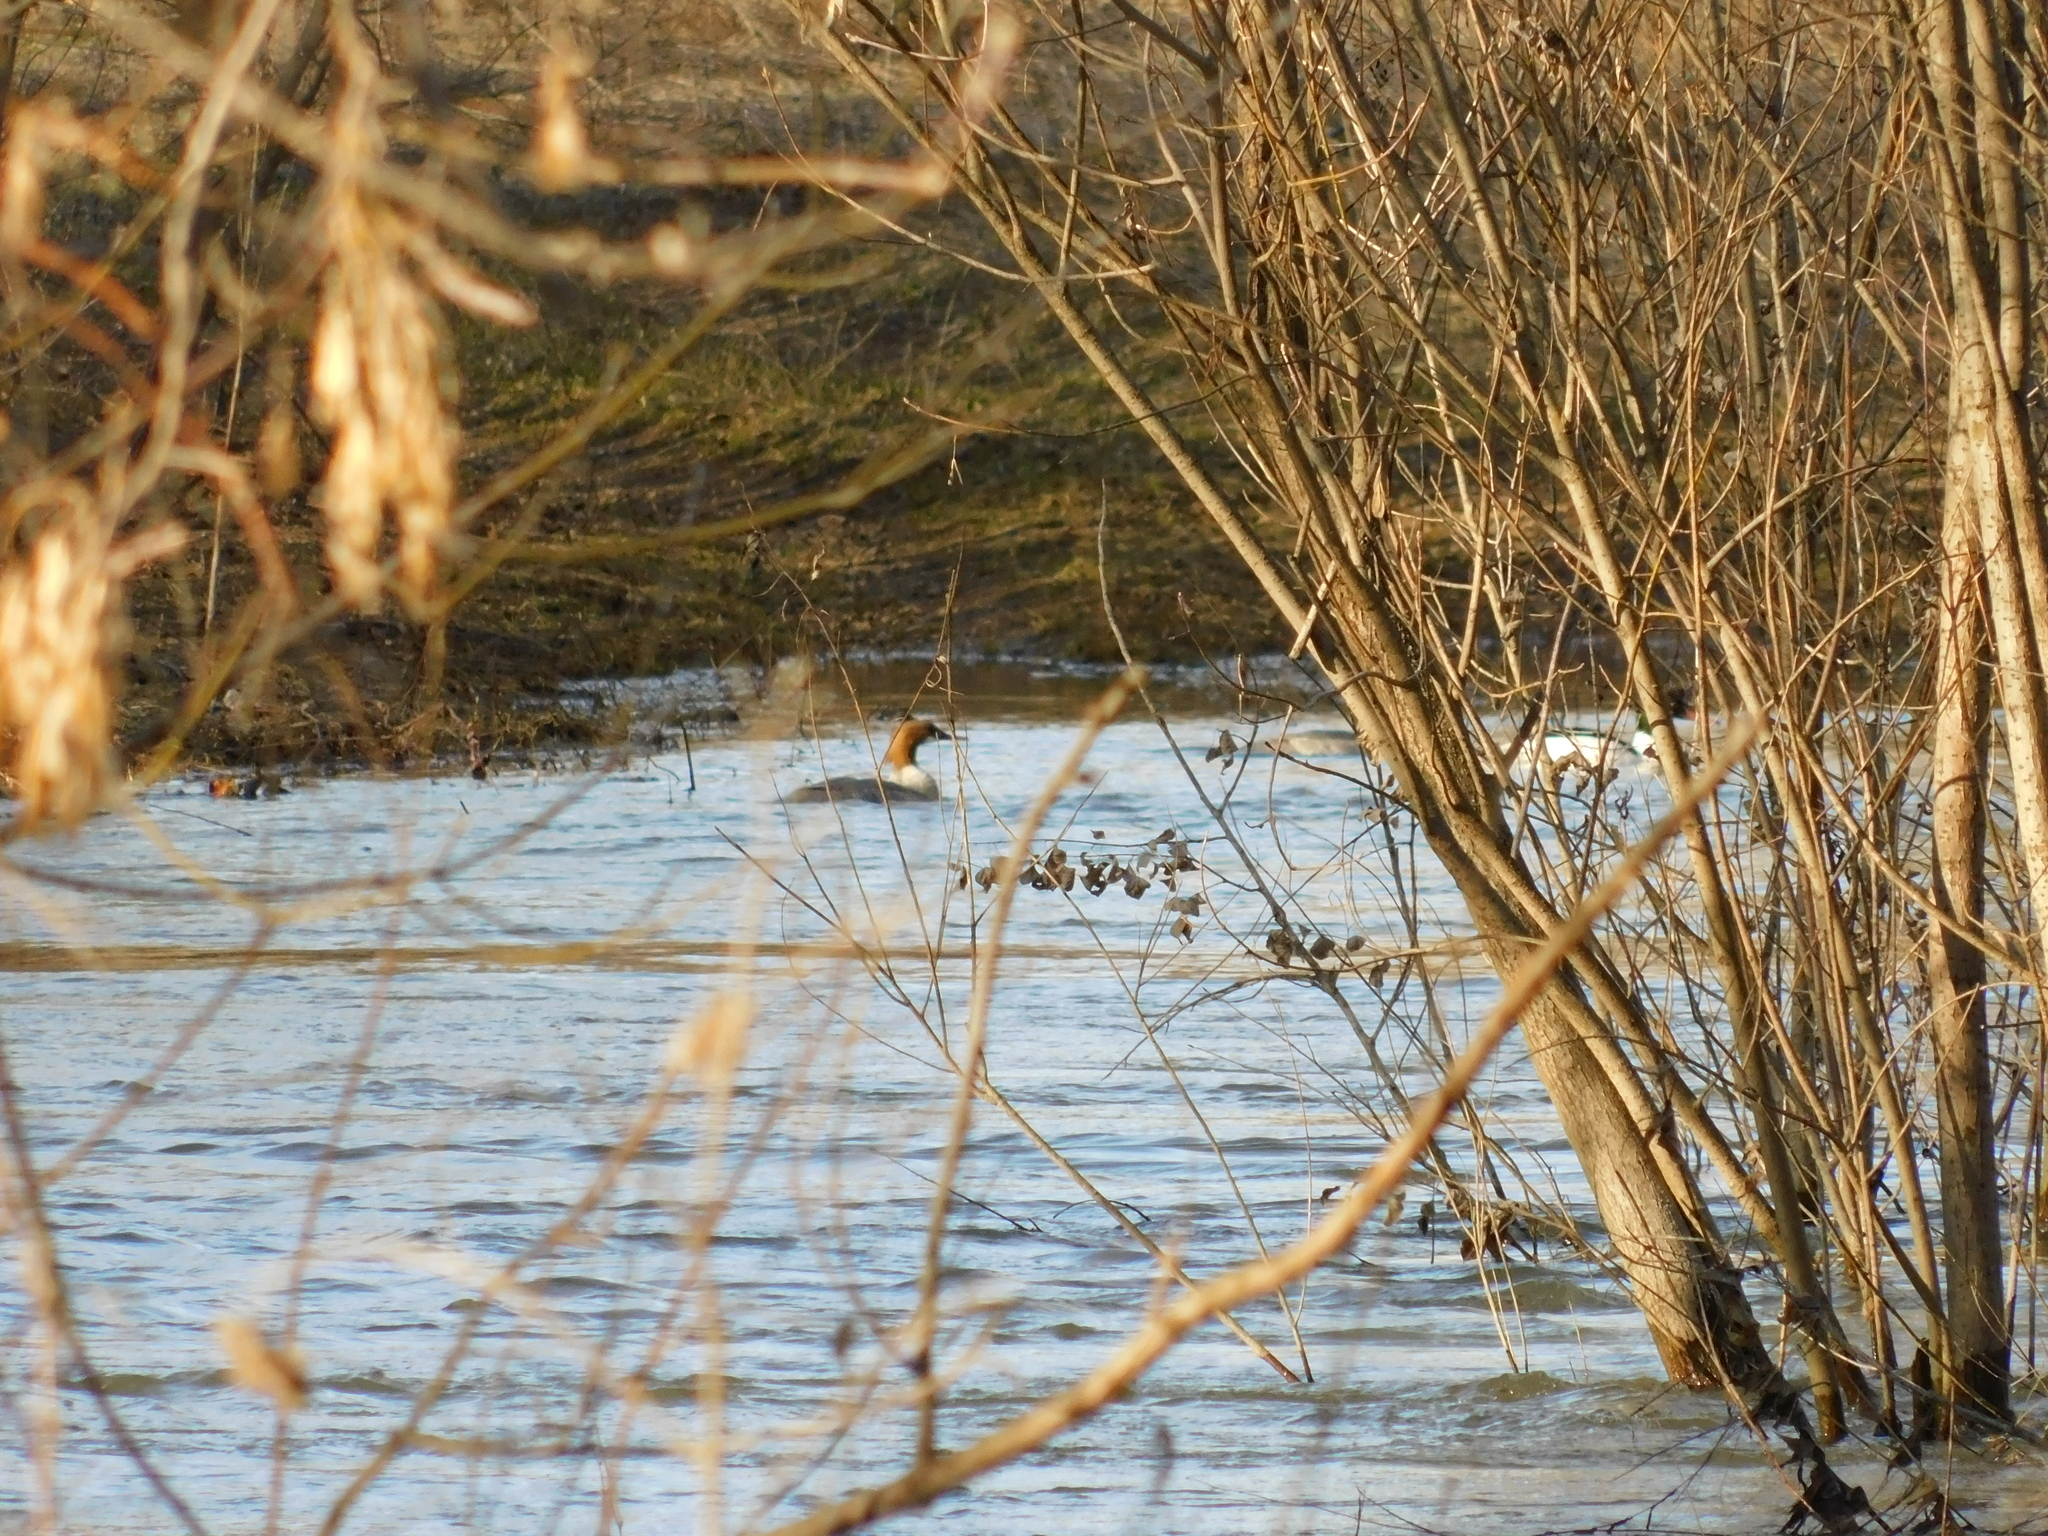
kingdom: Animalia
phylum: Chordata
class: Aves
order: Anseriformes
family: Anatidae
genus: Mergus
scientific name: Mergus merganser
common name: Common merganser
